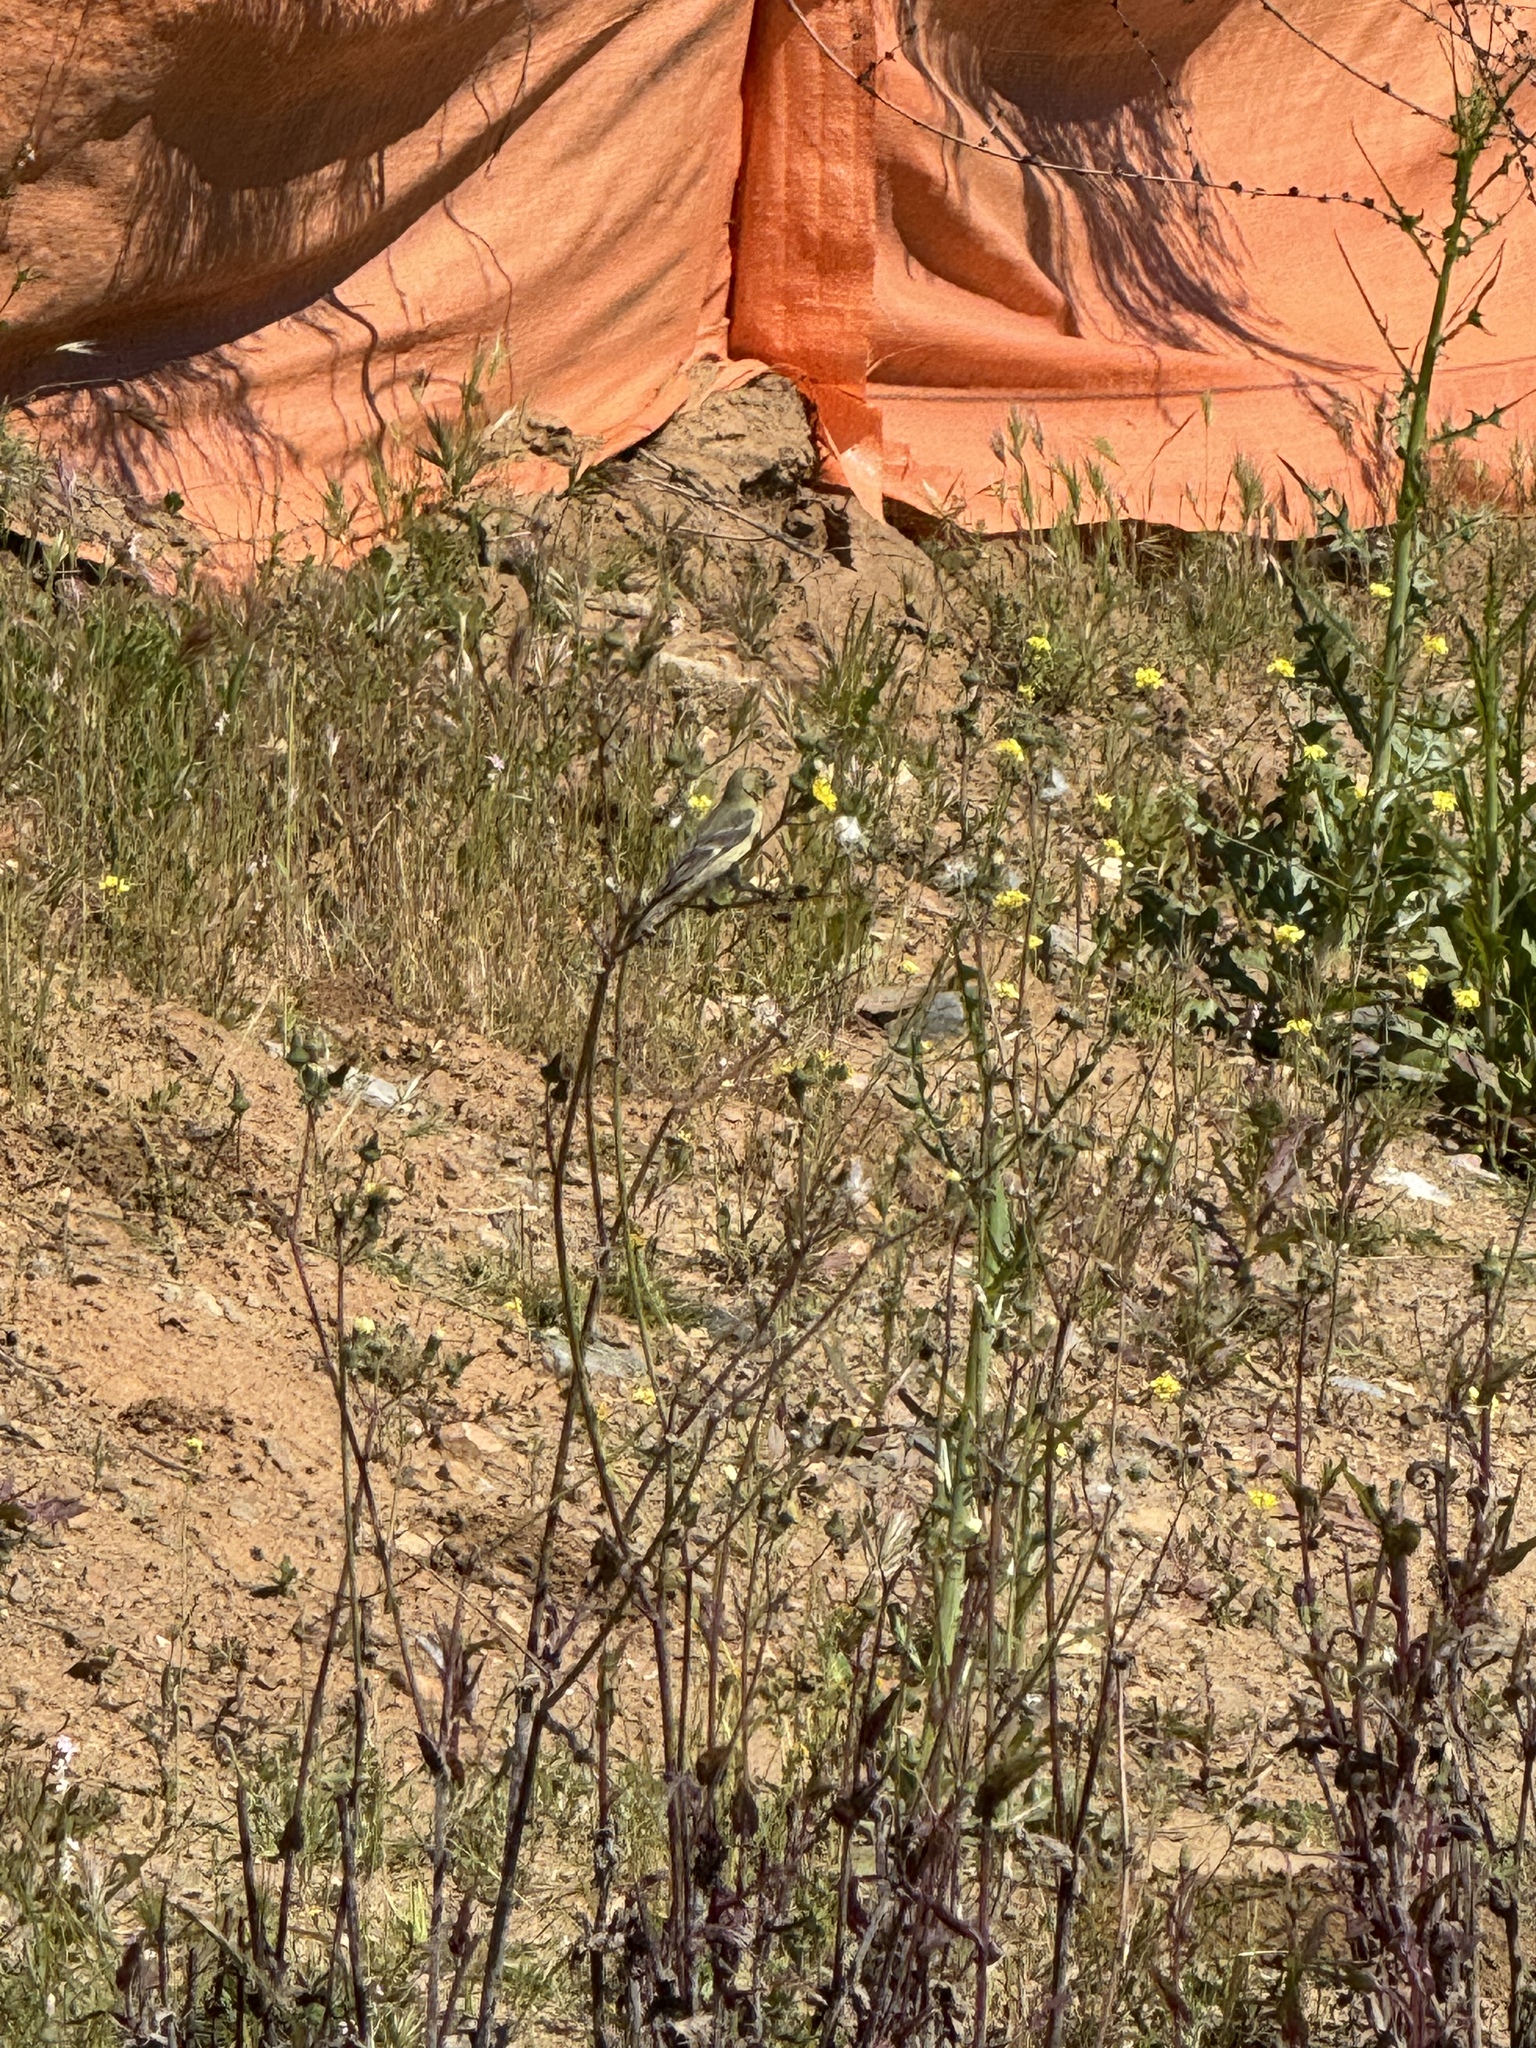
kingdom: Animalia
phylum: Chordata
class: Aves
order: Passeriformes
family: Fringillidae
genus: Spinus
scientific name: Spinus psaltria
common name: Lesser goldfinch
